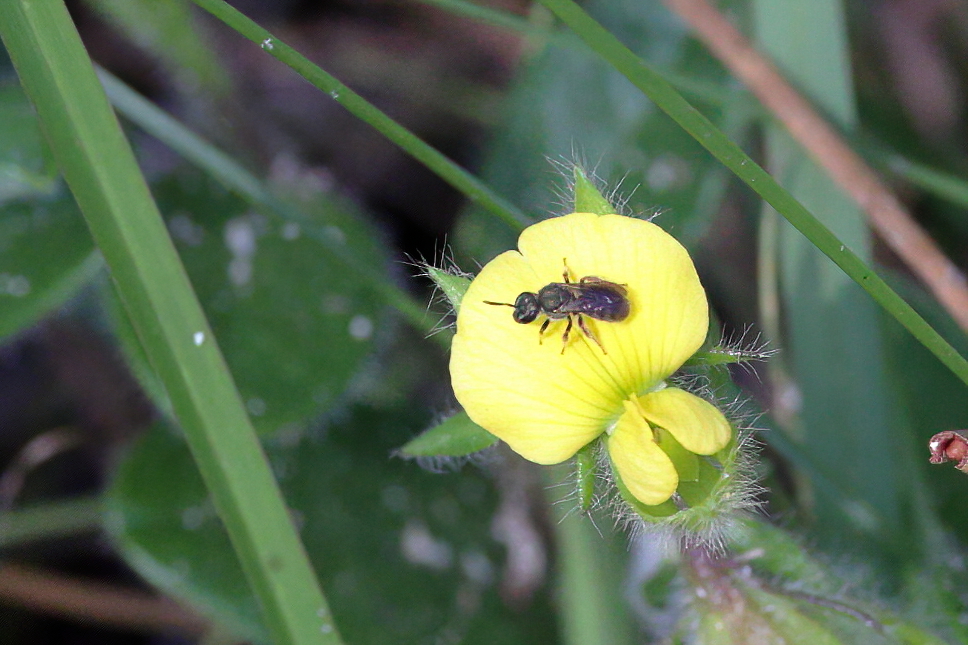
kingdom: Animalia
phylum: Arthropoda
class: Insecta
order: Hymenoptera
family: Halictidae
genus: Dialictus
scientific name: Dialictus
